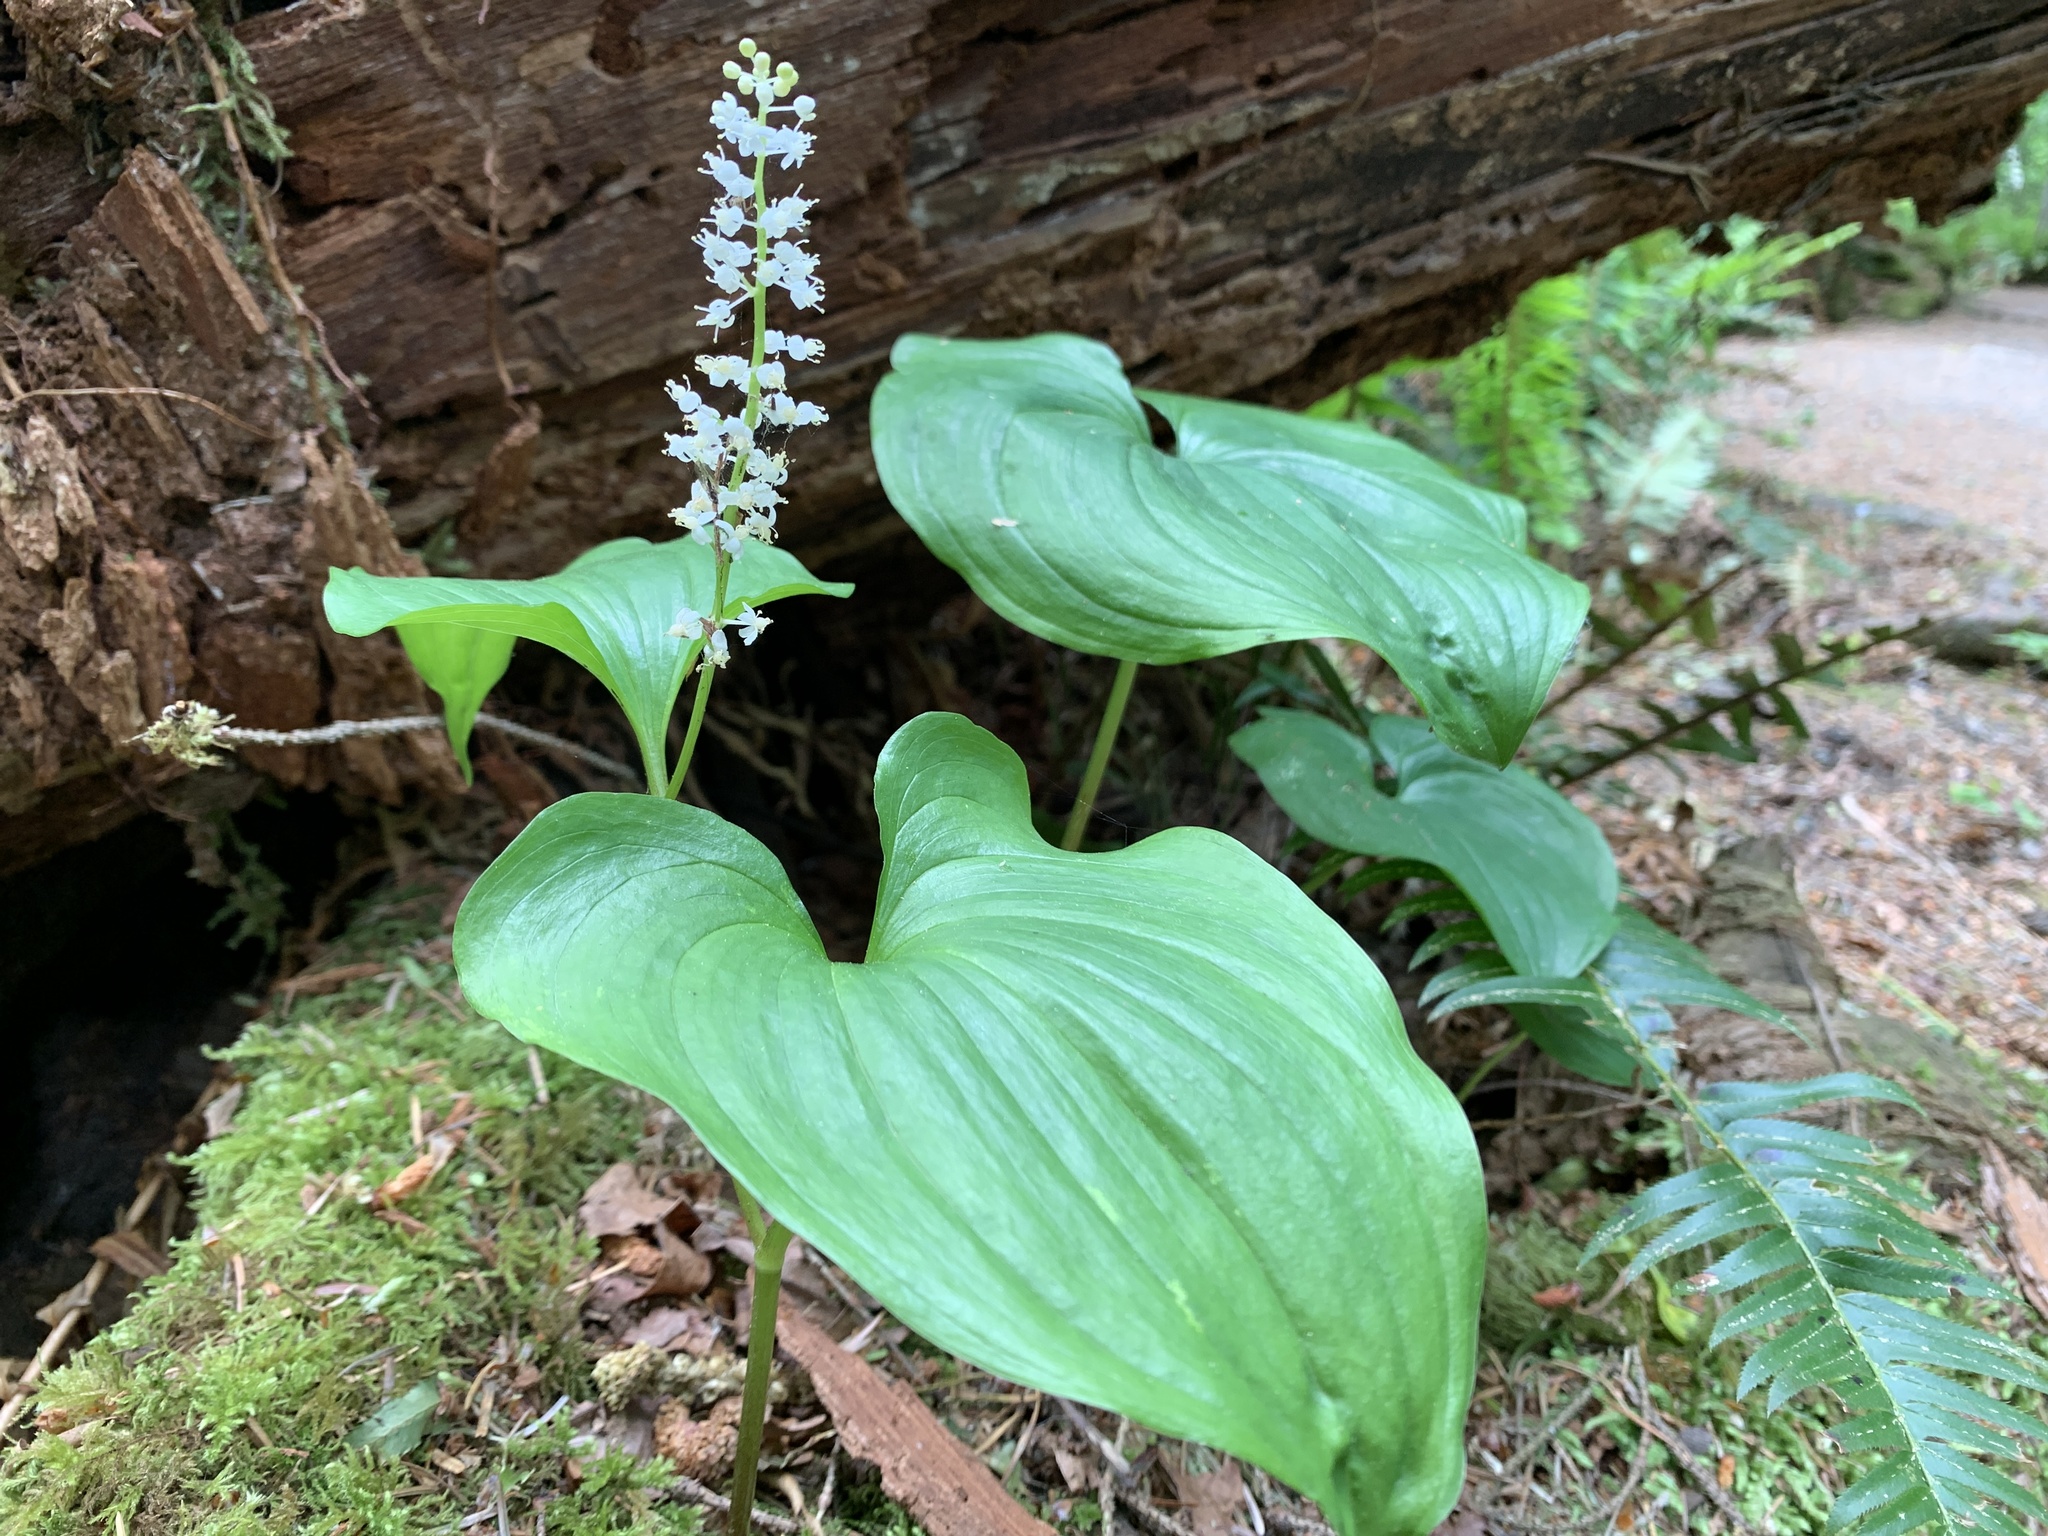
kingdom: Plantae
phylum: Tracheophyta
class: Liliopsida
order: Asparagales
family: Asparagaceae
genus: Maianthemum
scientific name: Maianthemum dilatatum
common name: False lily-of-the-valley
